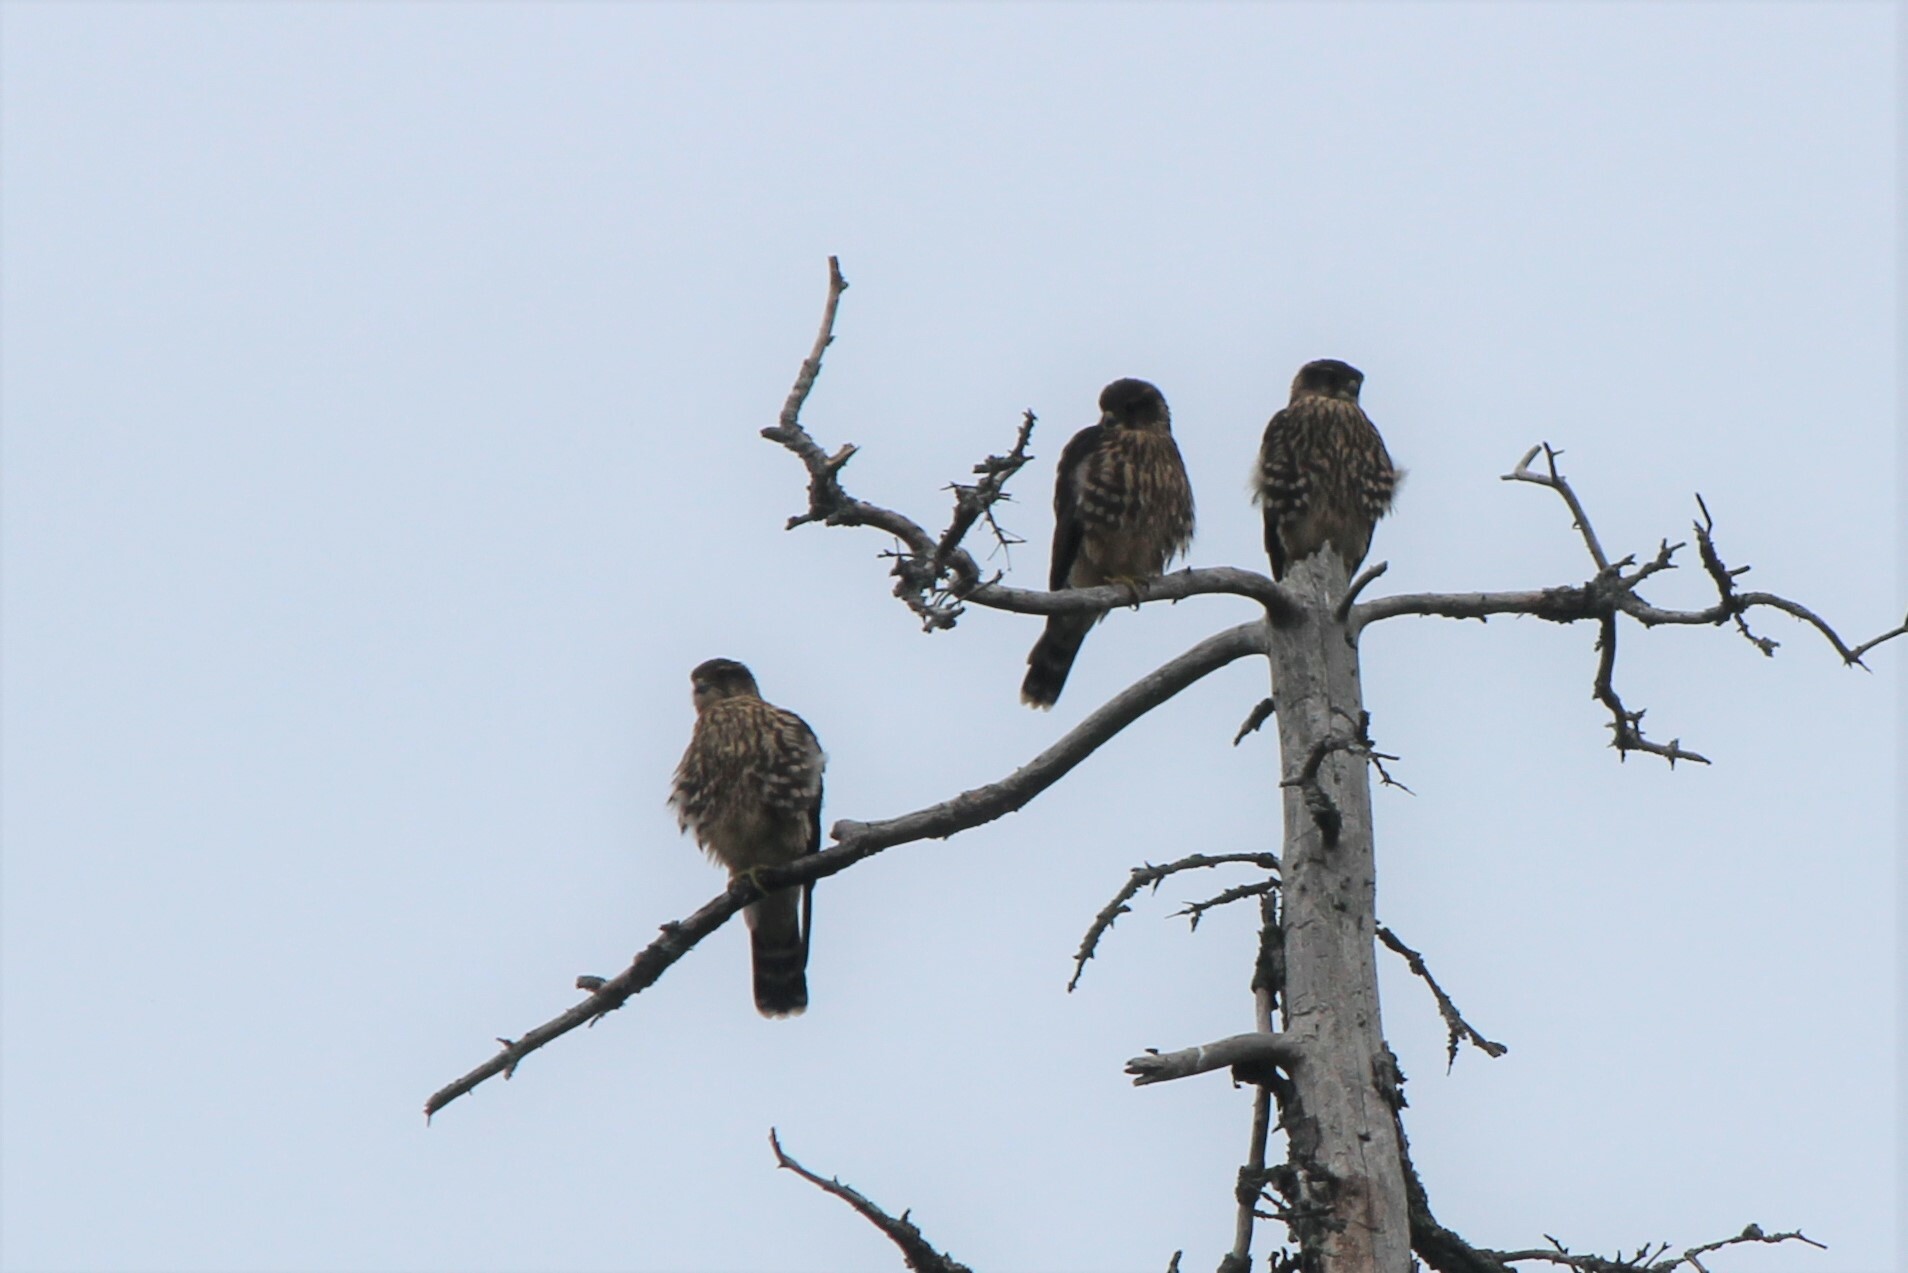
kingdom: Animalia
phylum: Chordata
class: Aves
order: Falconiformes
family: Falconidae
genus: Falco
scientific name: Falco columbarius
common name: Merlin
